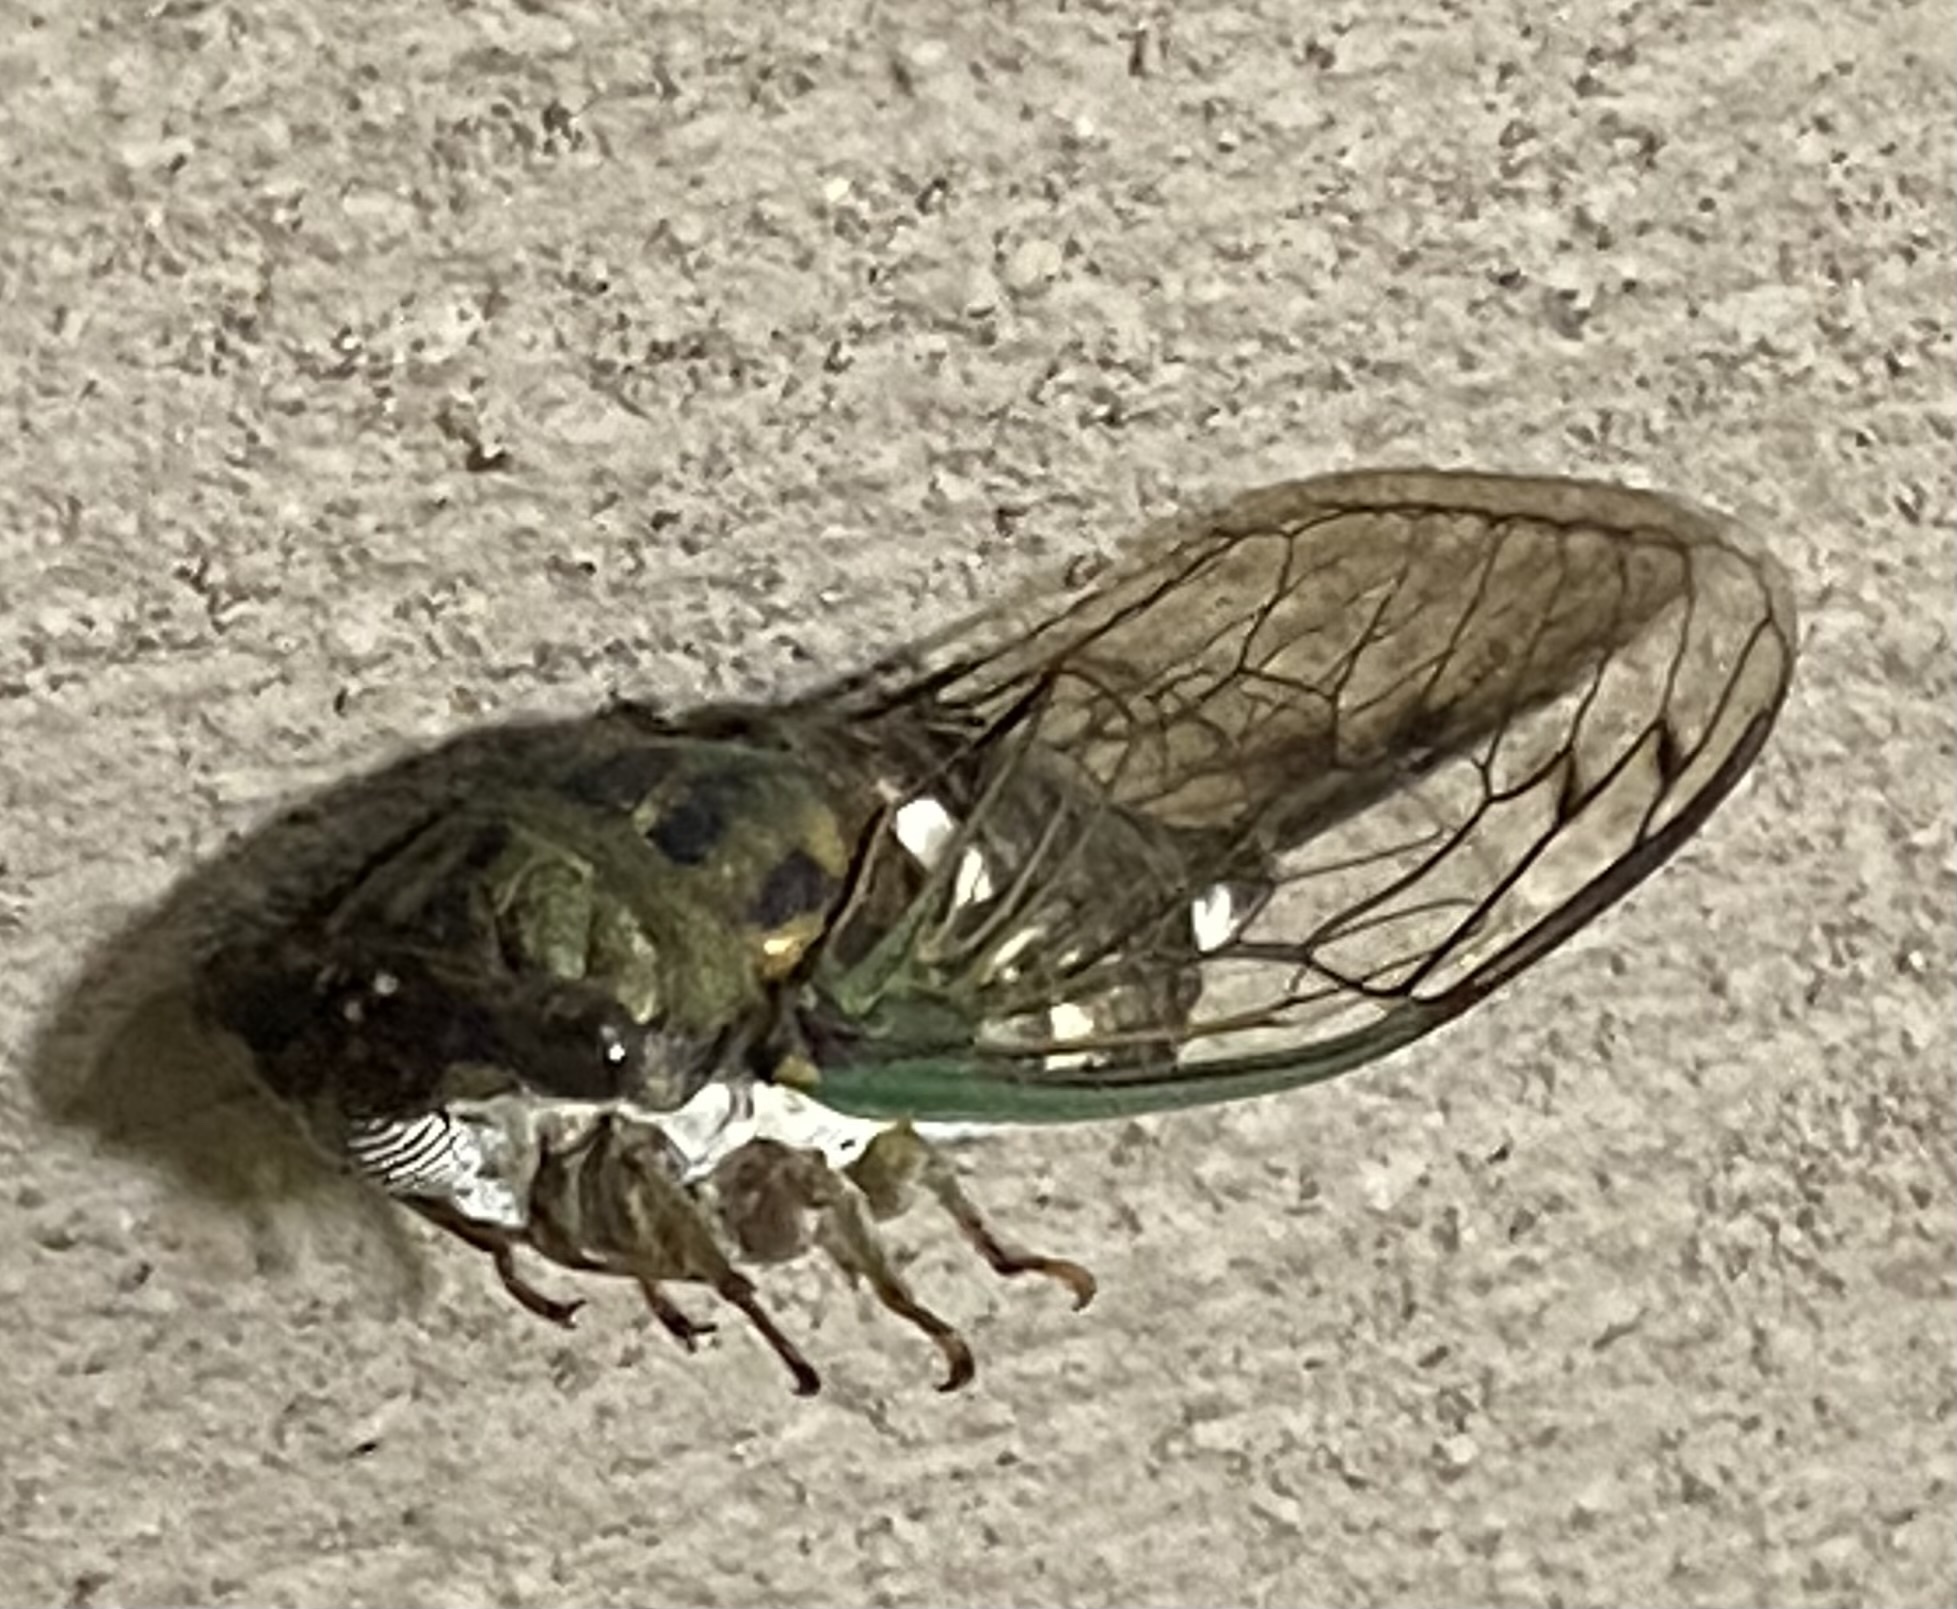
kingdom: Animalia
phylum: Arthropoda
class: Insecta
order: Hemiptera
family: Cicadidae
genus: Neotibicen
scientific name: Neotibicen pruinosus
